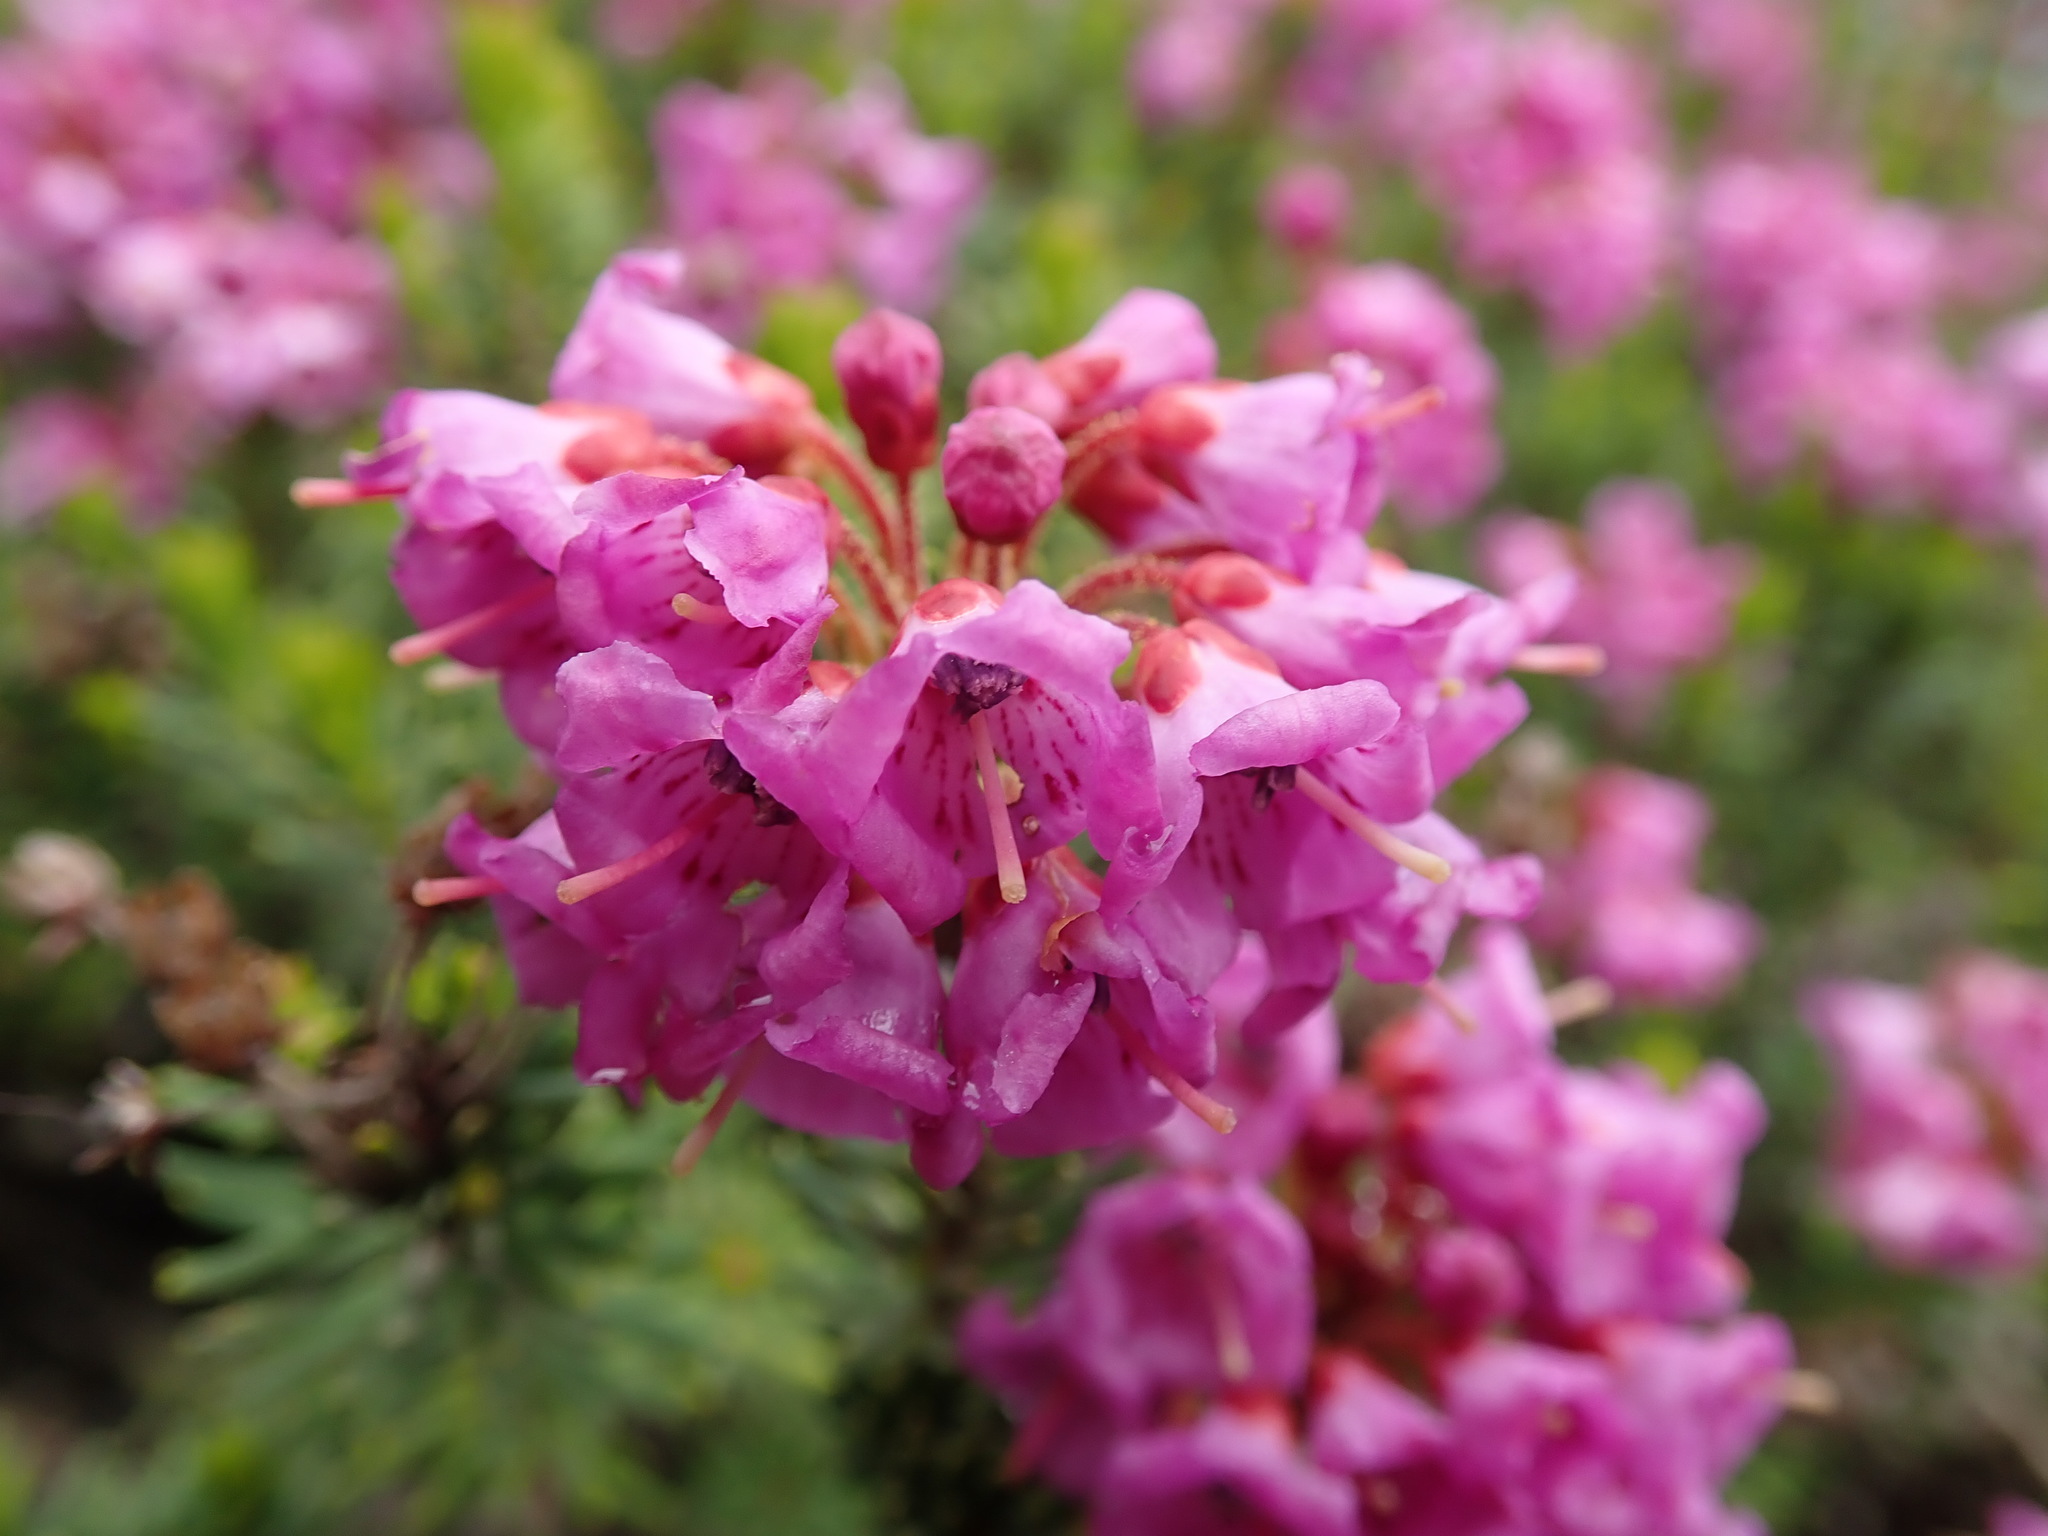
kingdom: Plantae
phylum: Tracheophyta
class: Magnoliopsida
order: Ericales
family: Ericaceae
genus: Phyllodoce
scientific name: Phyllodoce empetriformis
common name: Pink mountain heather
